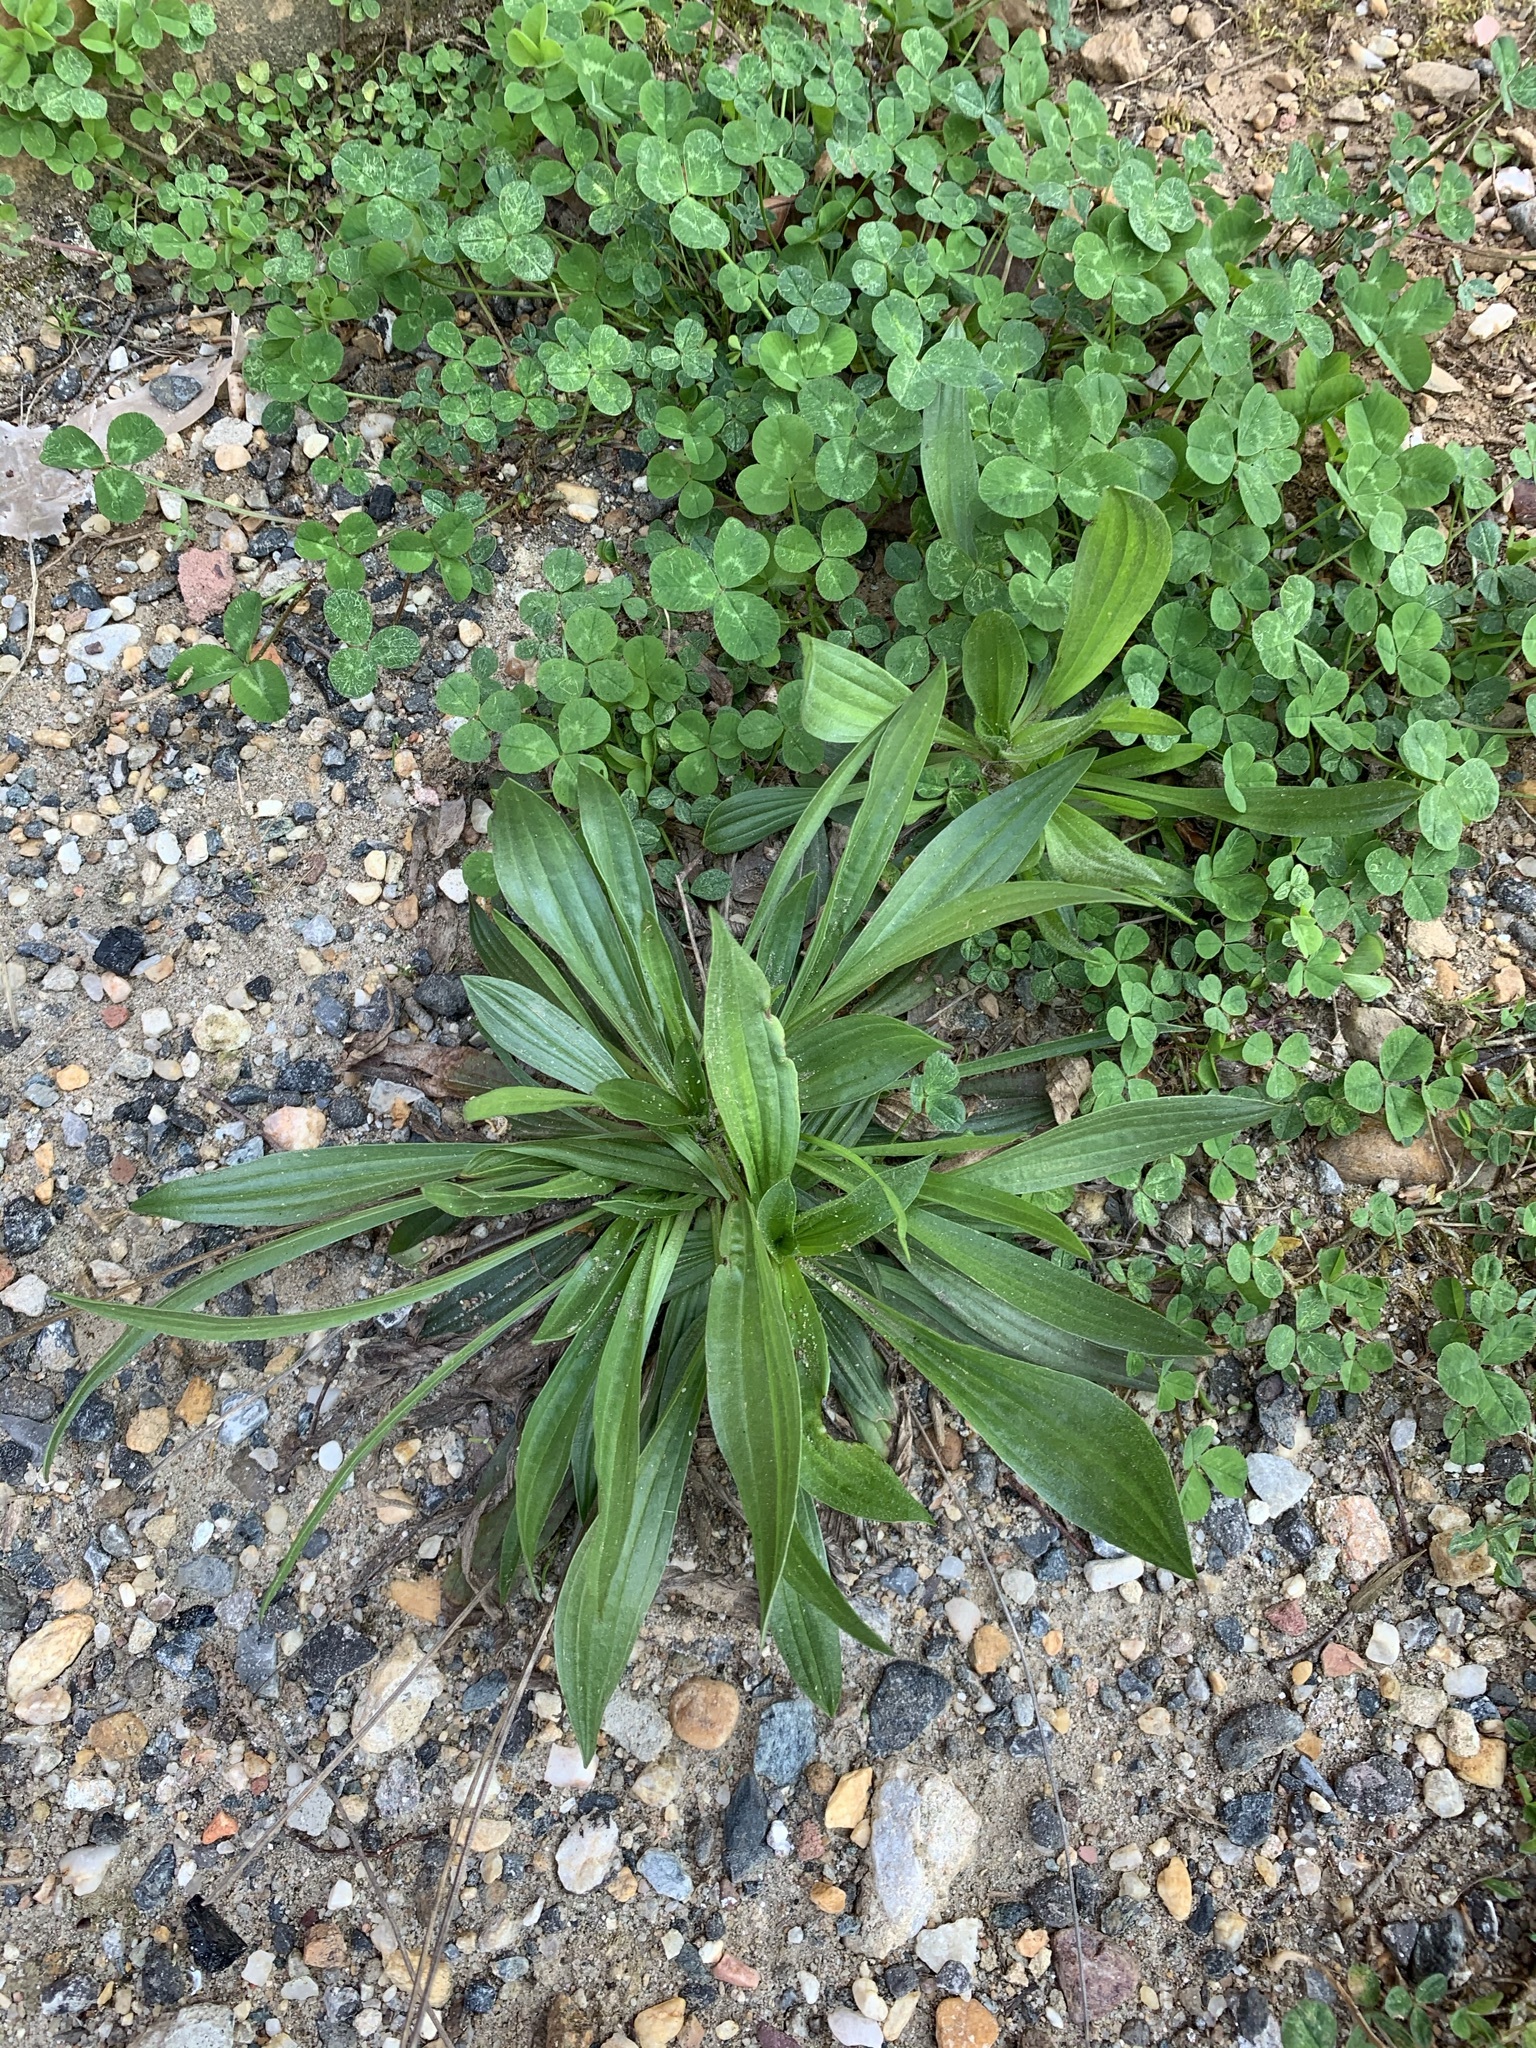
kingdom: Plantae
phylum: Tracheophyta
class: Magnoliopsida
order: Lamiales
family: Plantaginaceae
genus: Plantago
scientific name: Plantago lanceolata
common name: Ribwort plantain
